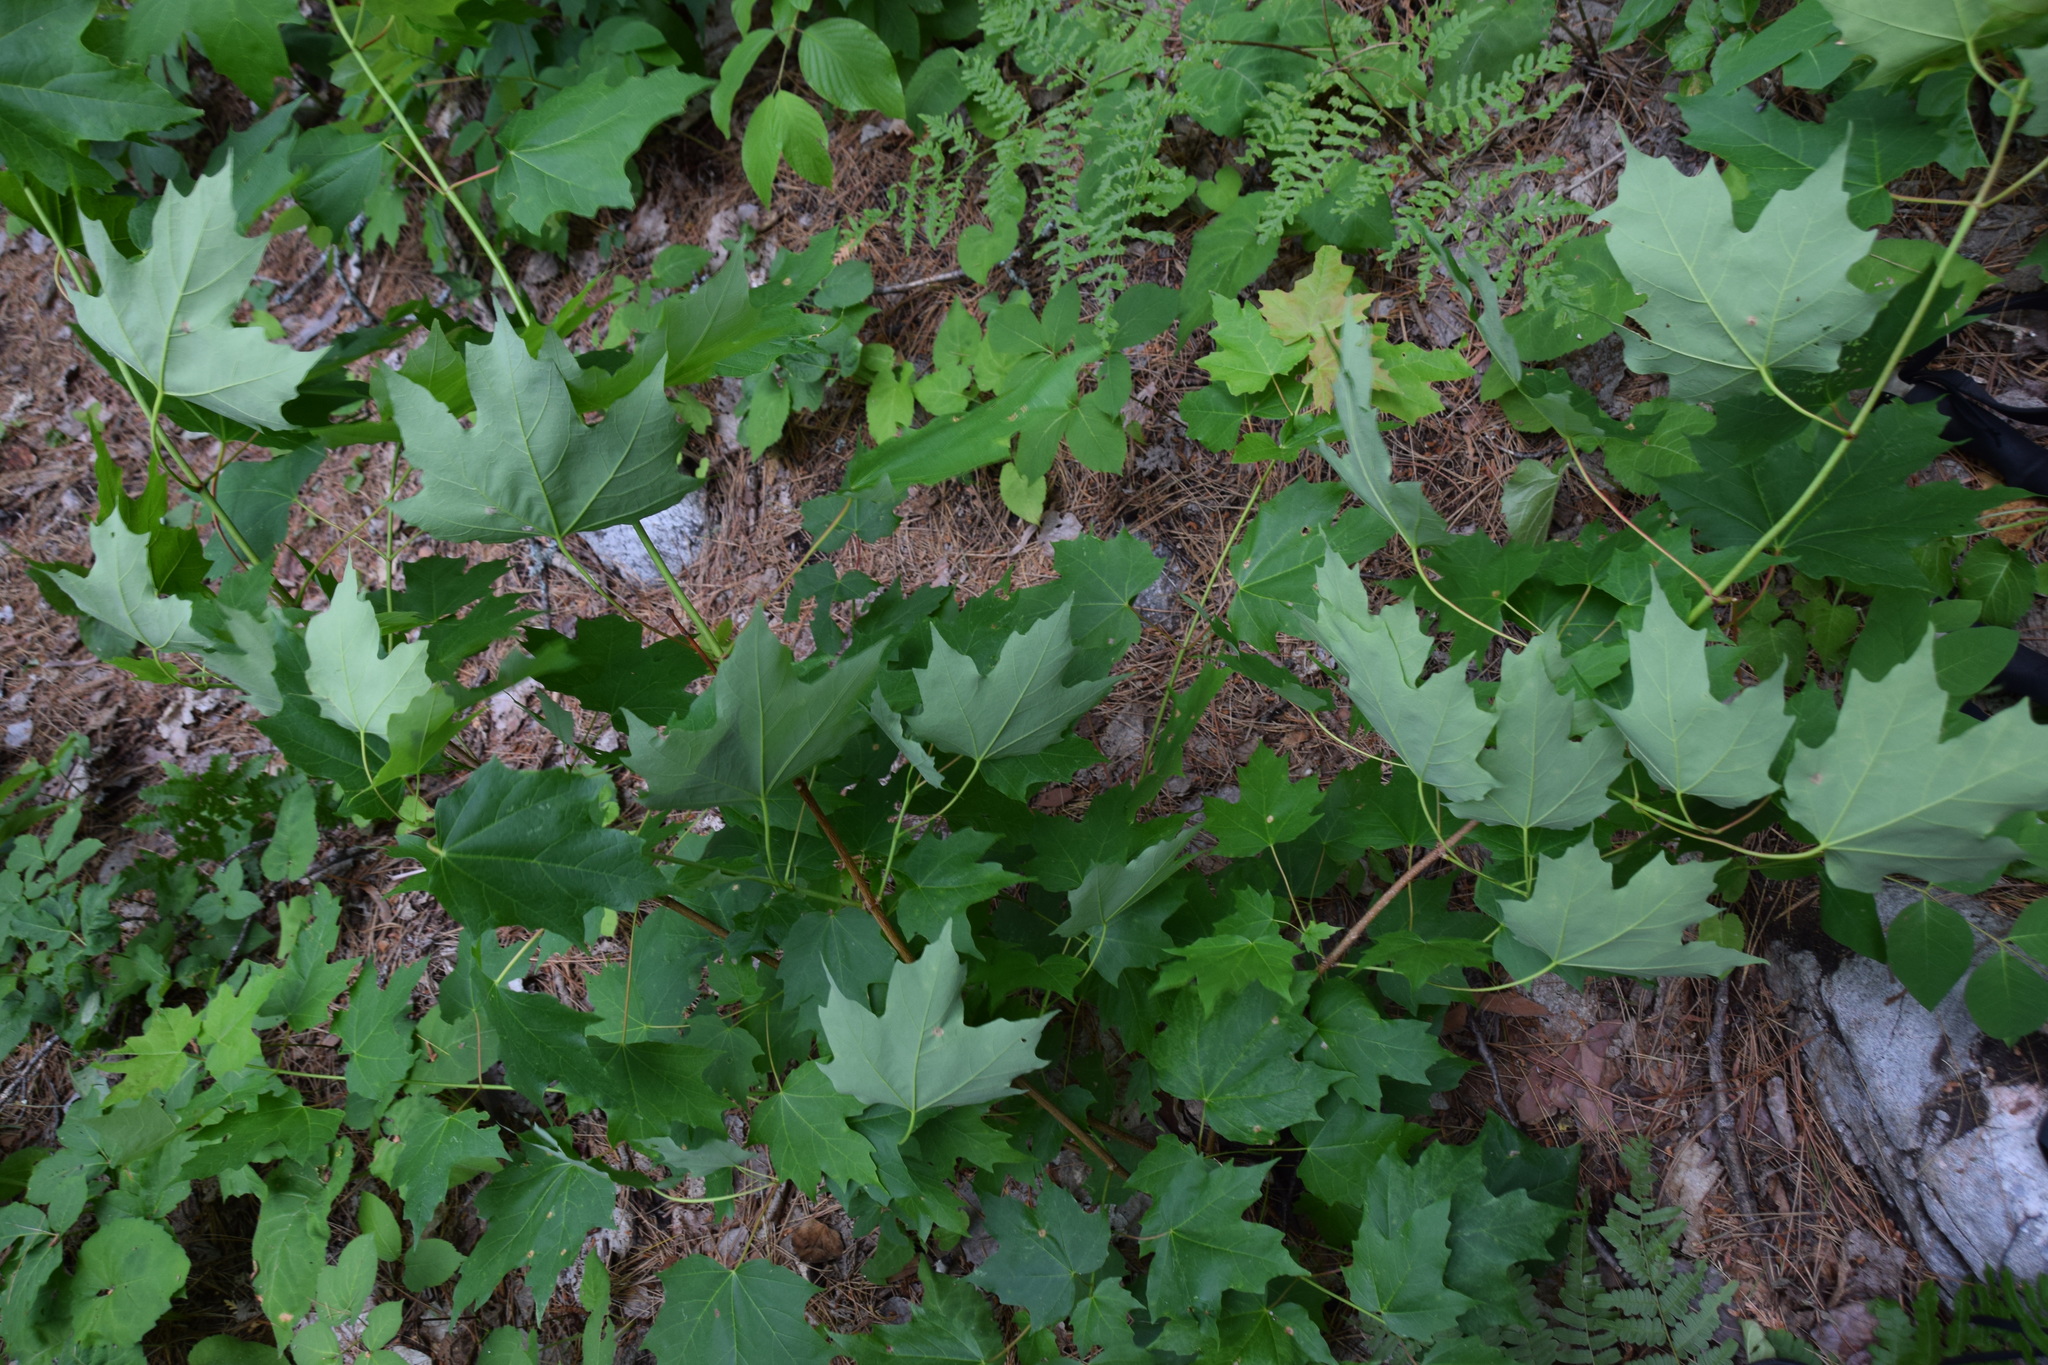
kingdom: Plantae
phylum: Tracheophyta
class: Magnoliopsida
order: Sapindales
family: Sapindaceae
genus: Acer
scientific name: Acer saccharum
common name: Sugar maple
